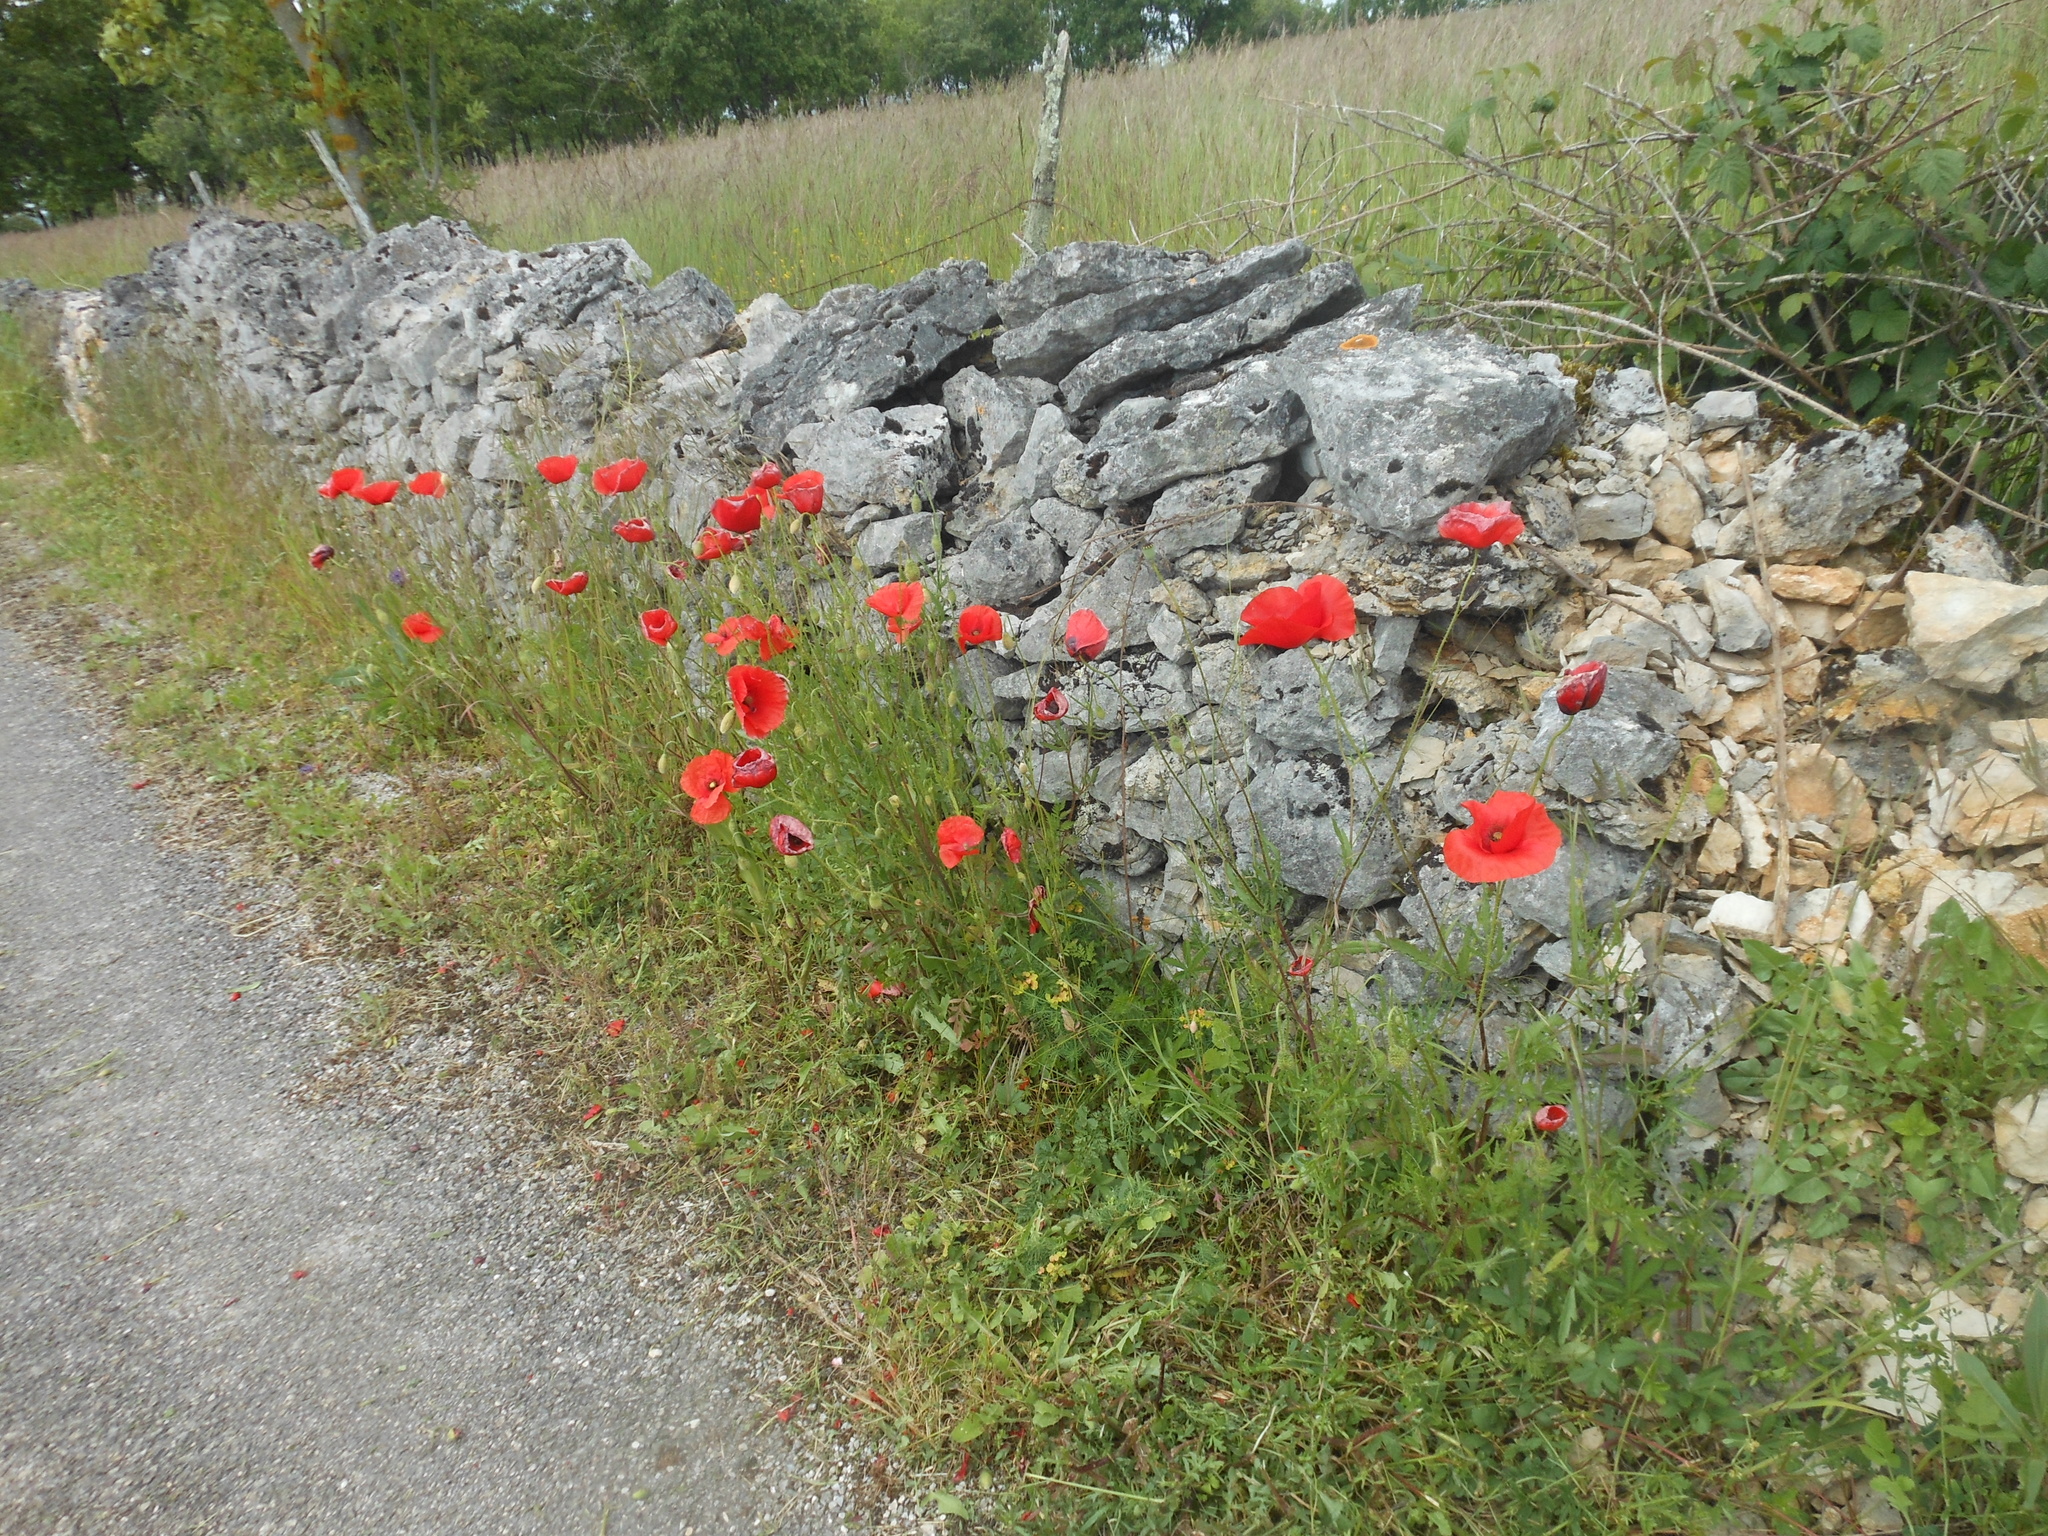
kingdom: Plantae
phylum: Tracheophyta
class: Magnoliopsida
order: Ranunculales
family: Papaveraceae
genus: Papaver
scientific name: Papaver rhoeas
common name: Corn poppy
